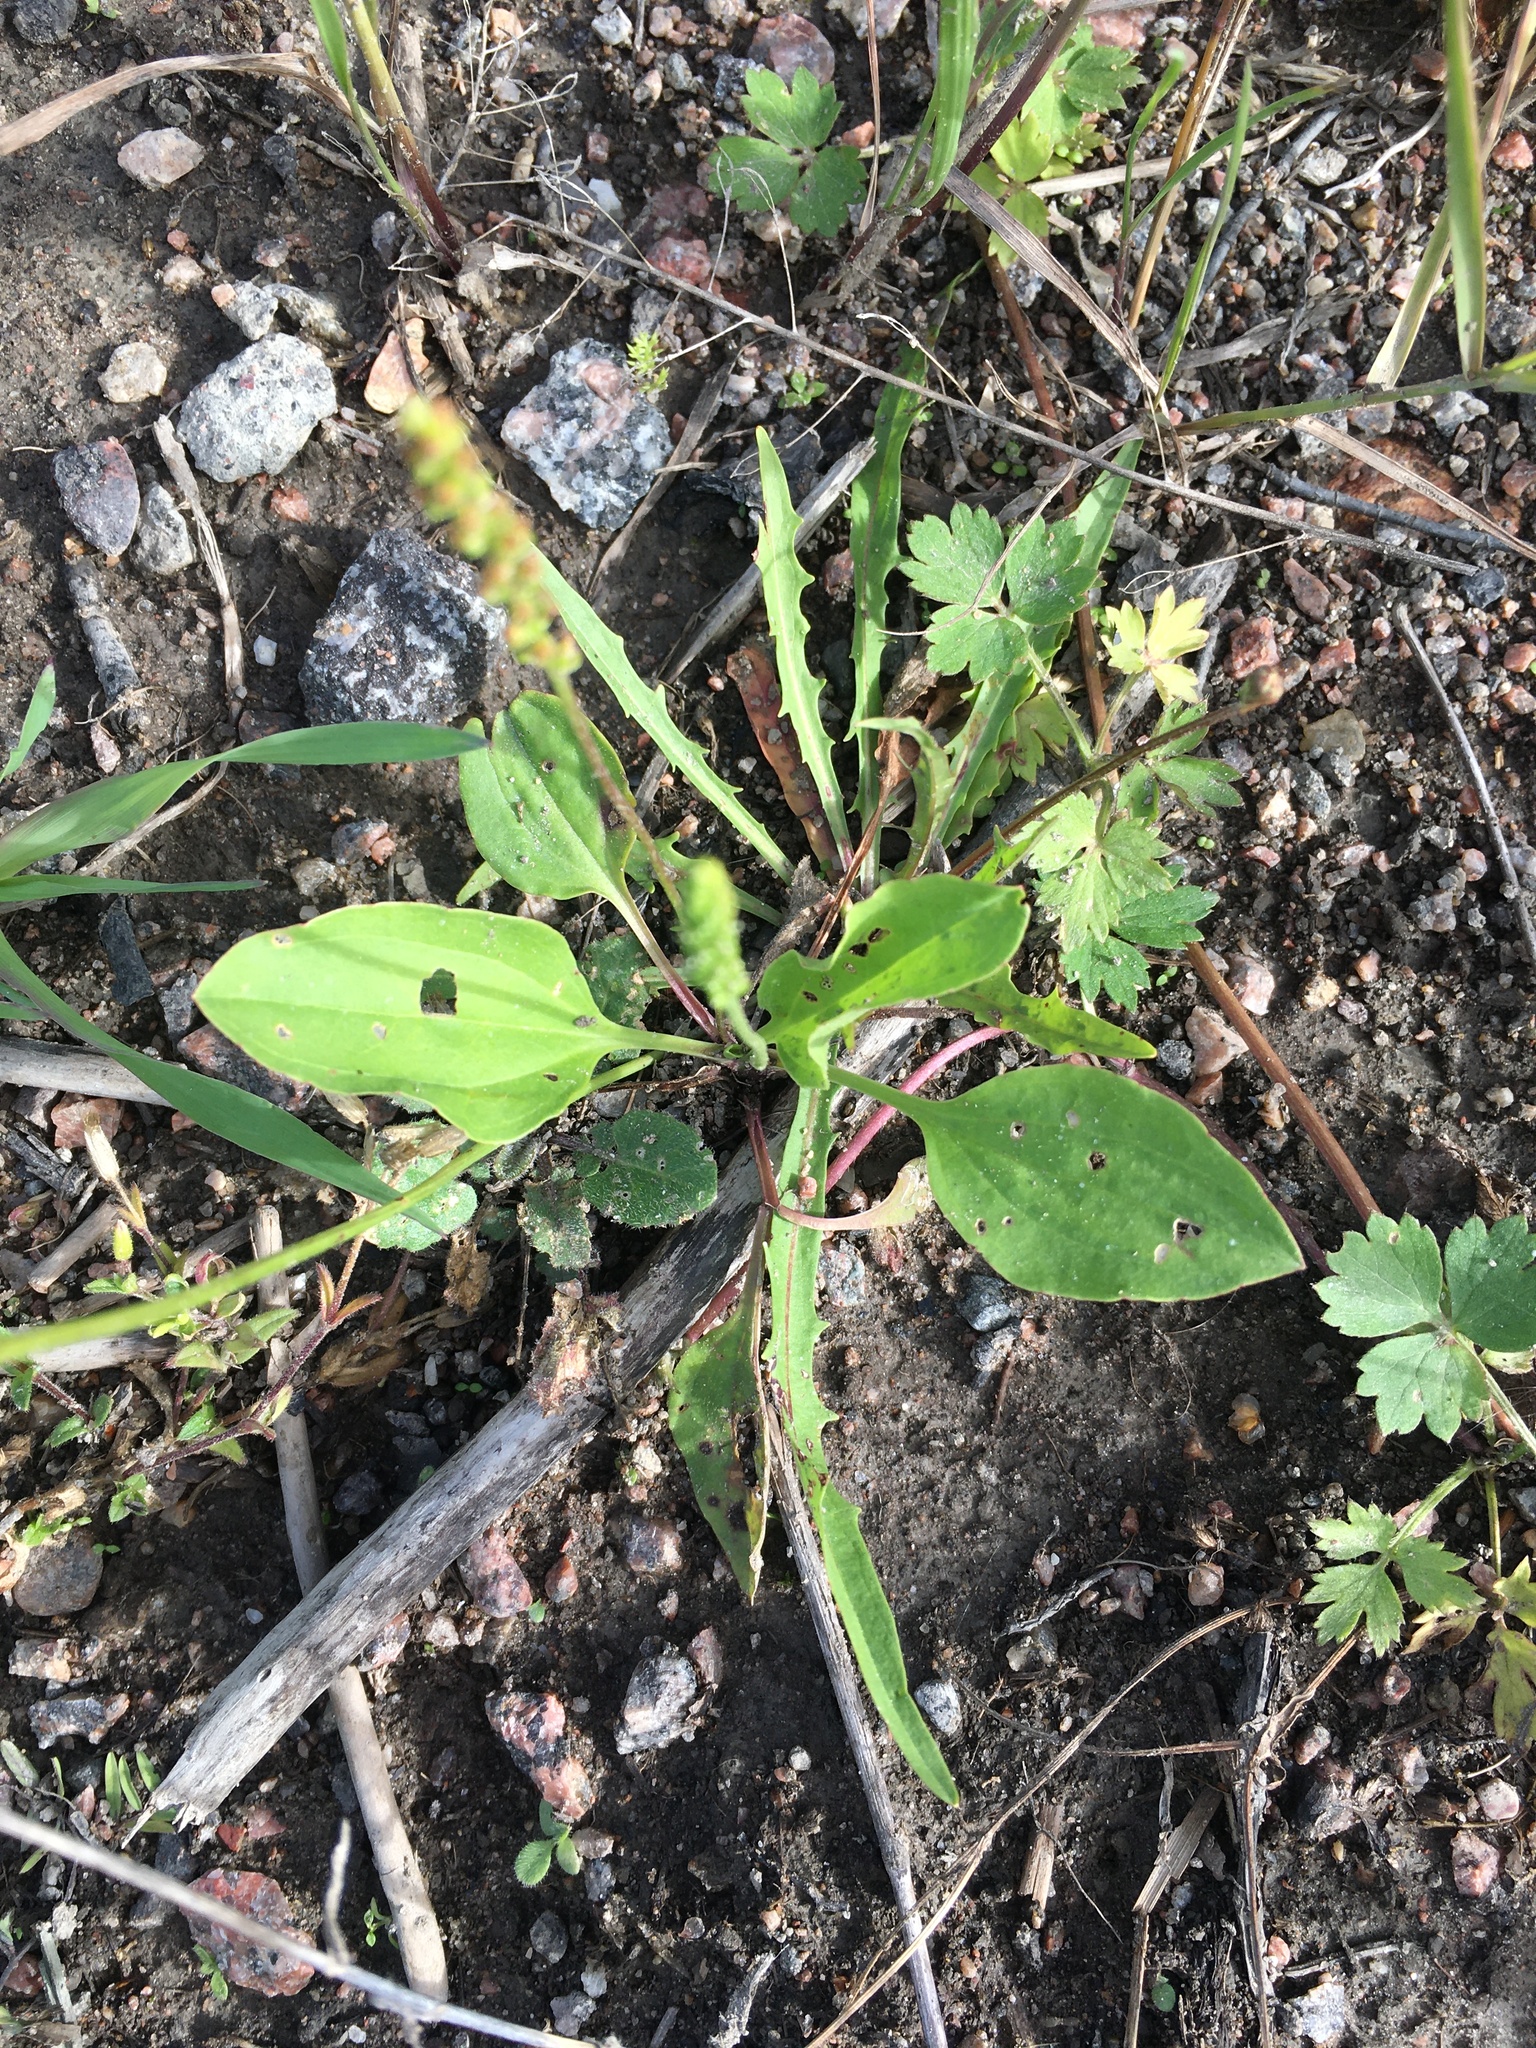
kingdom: Plantae
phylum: Tracheophyta
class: Magnoliopsida
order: Lamiales
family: Plantaginaceae
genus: Plantago
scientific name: Plantago major
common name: Common plantain
